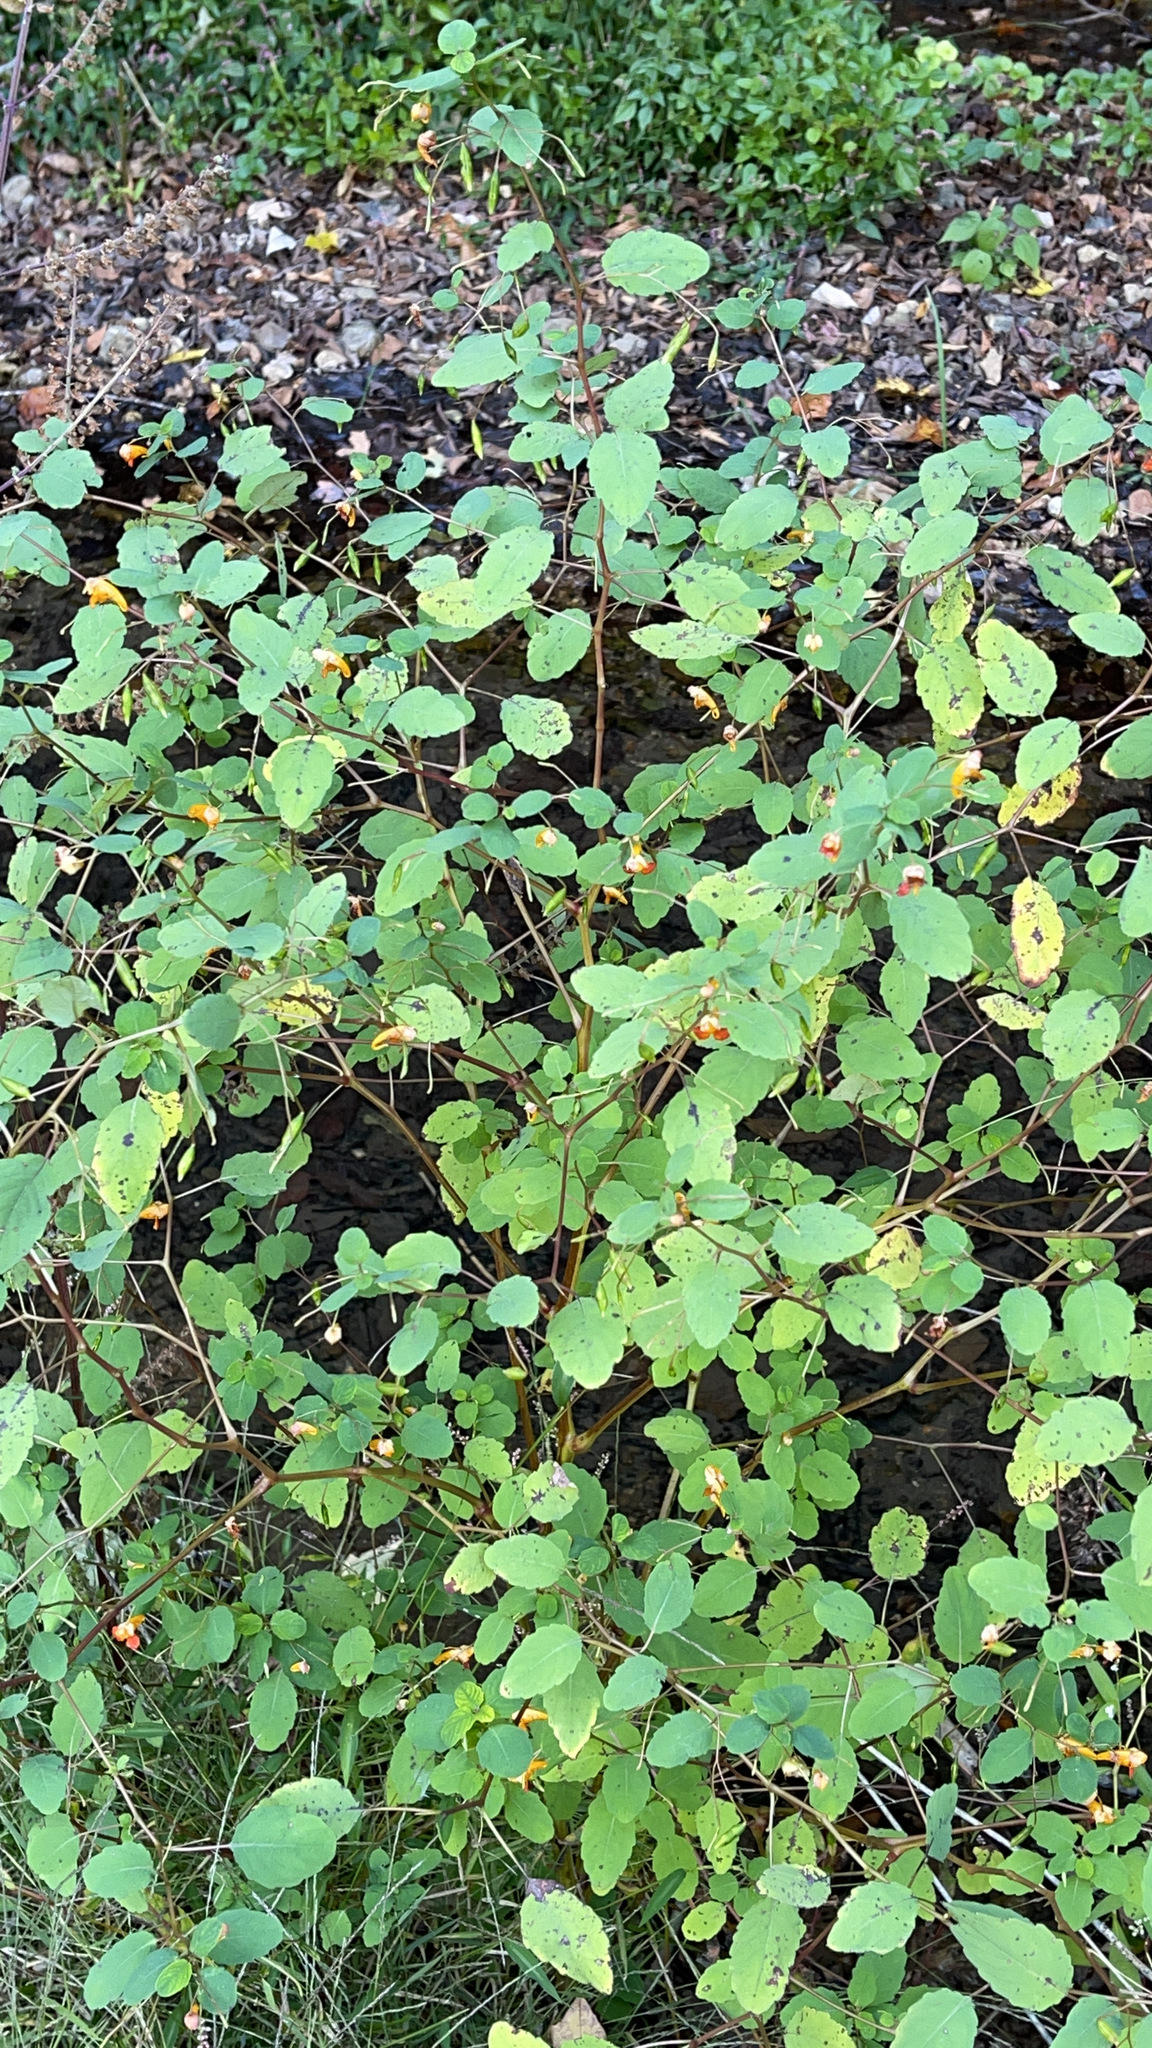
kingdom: Plantae
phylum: Tracheophyta
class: Magnoliopsida
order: Ericales
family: Balsaminaceae
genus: Impatiens
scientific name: Impatiens capensis
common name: Orange balsam
